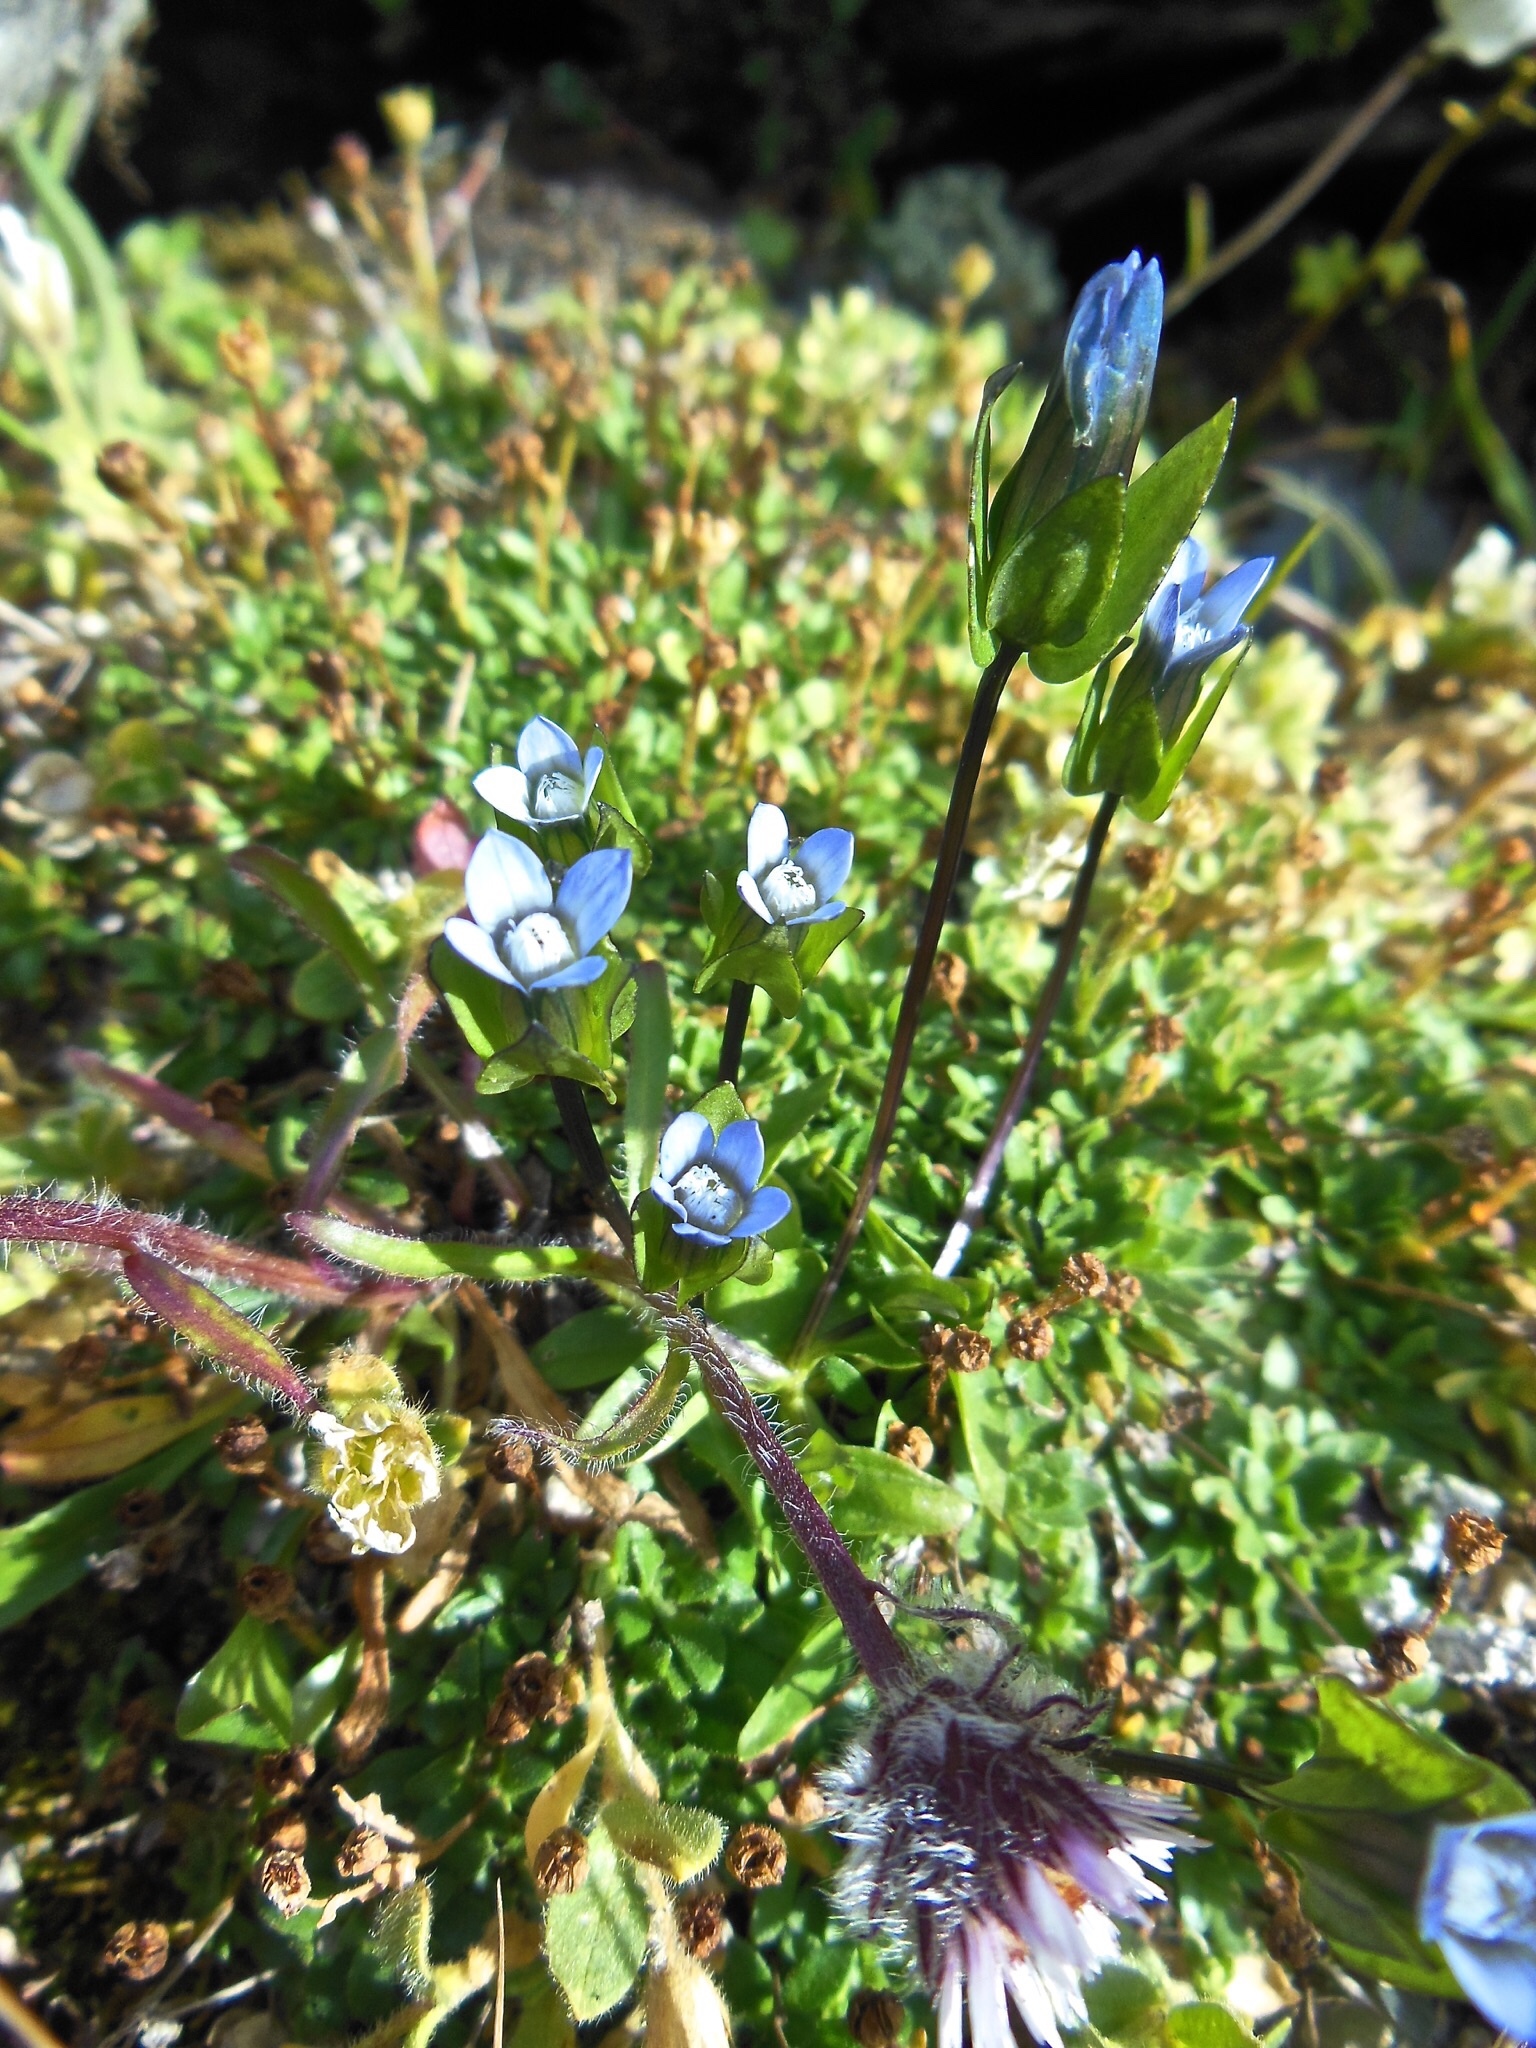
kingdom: Plantae
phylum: Tracheophyta
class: Magnoliopsida
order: Gentianales
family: Gentianaceae
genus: Comastoma
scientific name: Comastoma tenellum
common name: Dane's dwarf gentian
